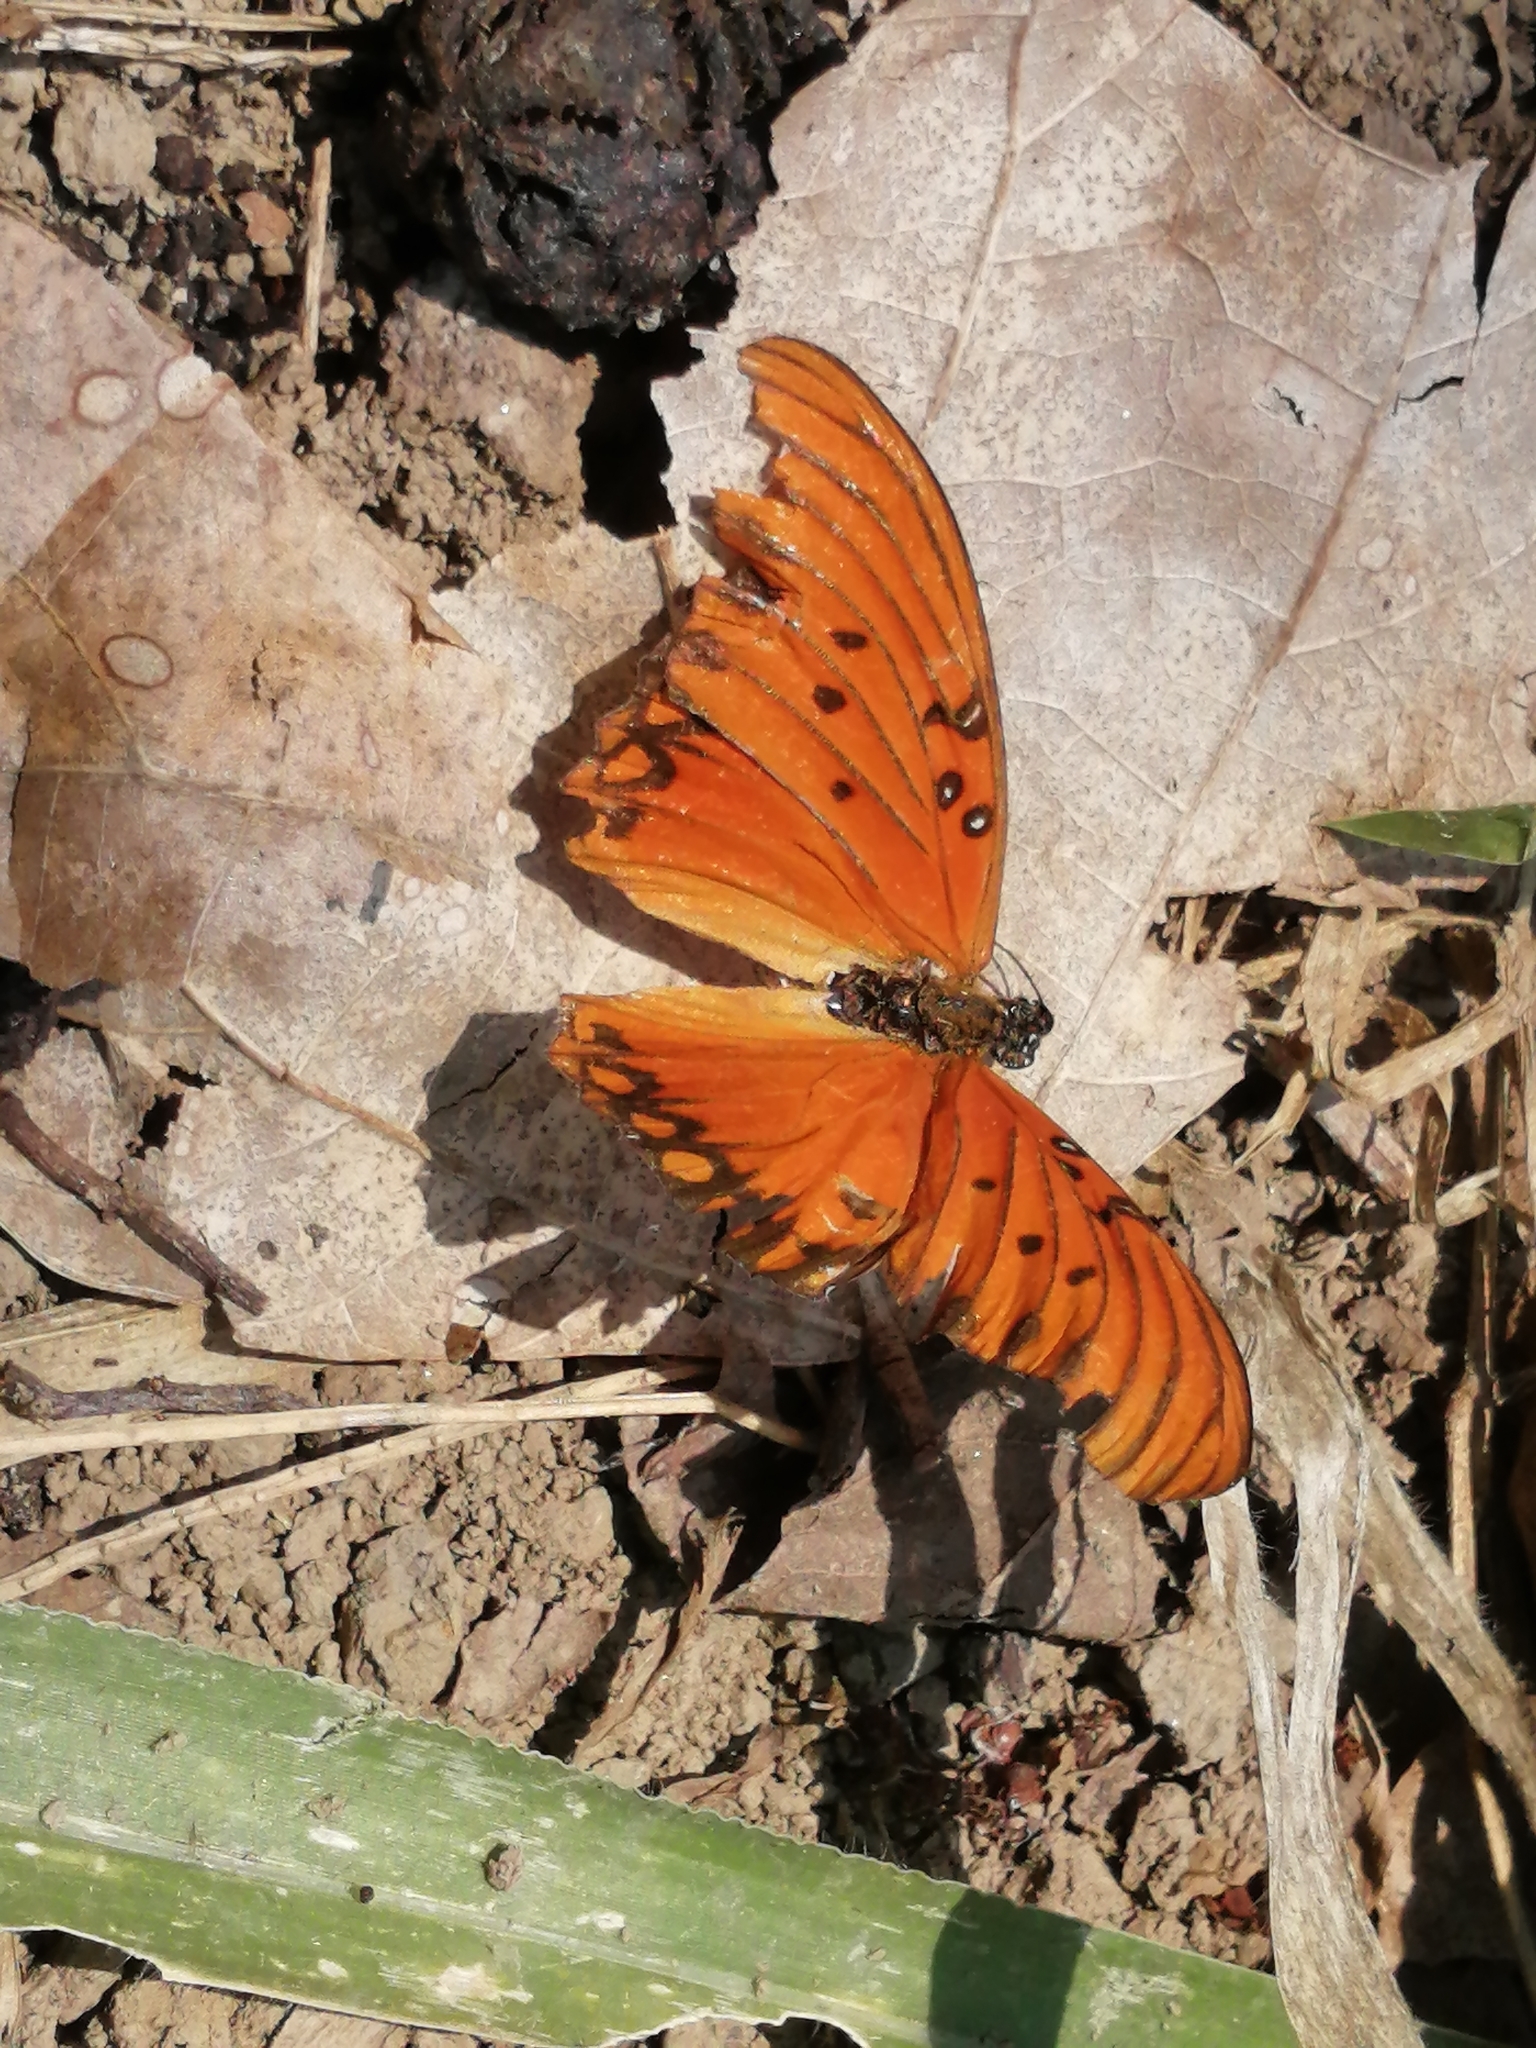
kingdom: Animalia
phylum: Arthropoda
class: Insecta
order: Lepidoptera
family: Nymphalidae
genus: Dione
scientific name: Dione vanillae
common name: Gulf fritillary
